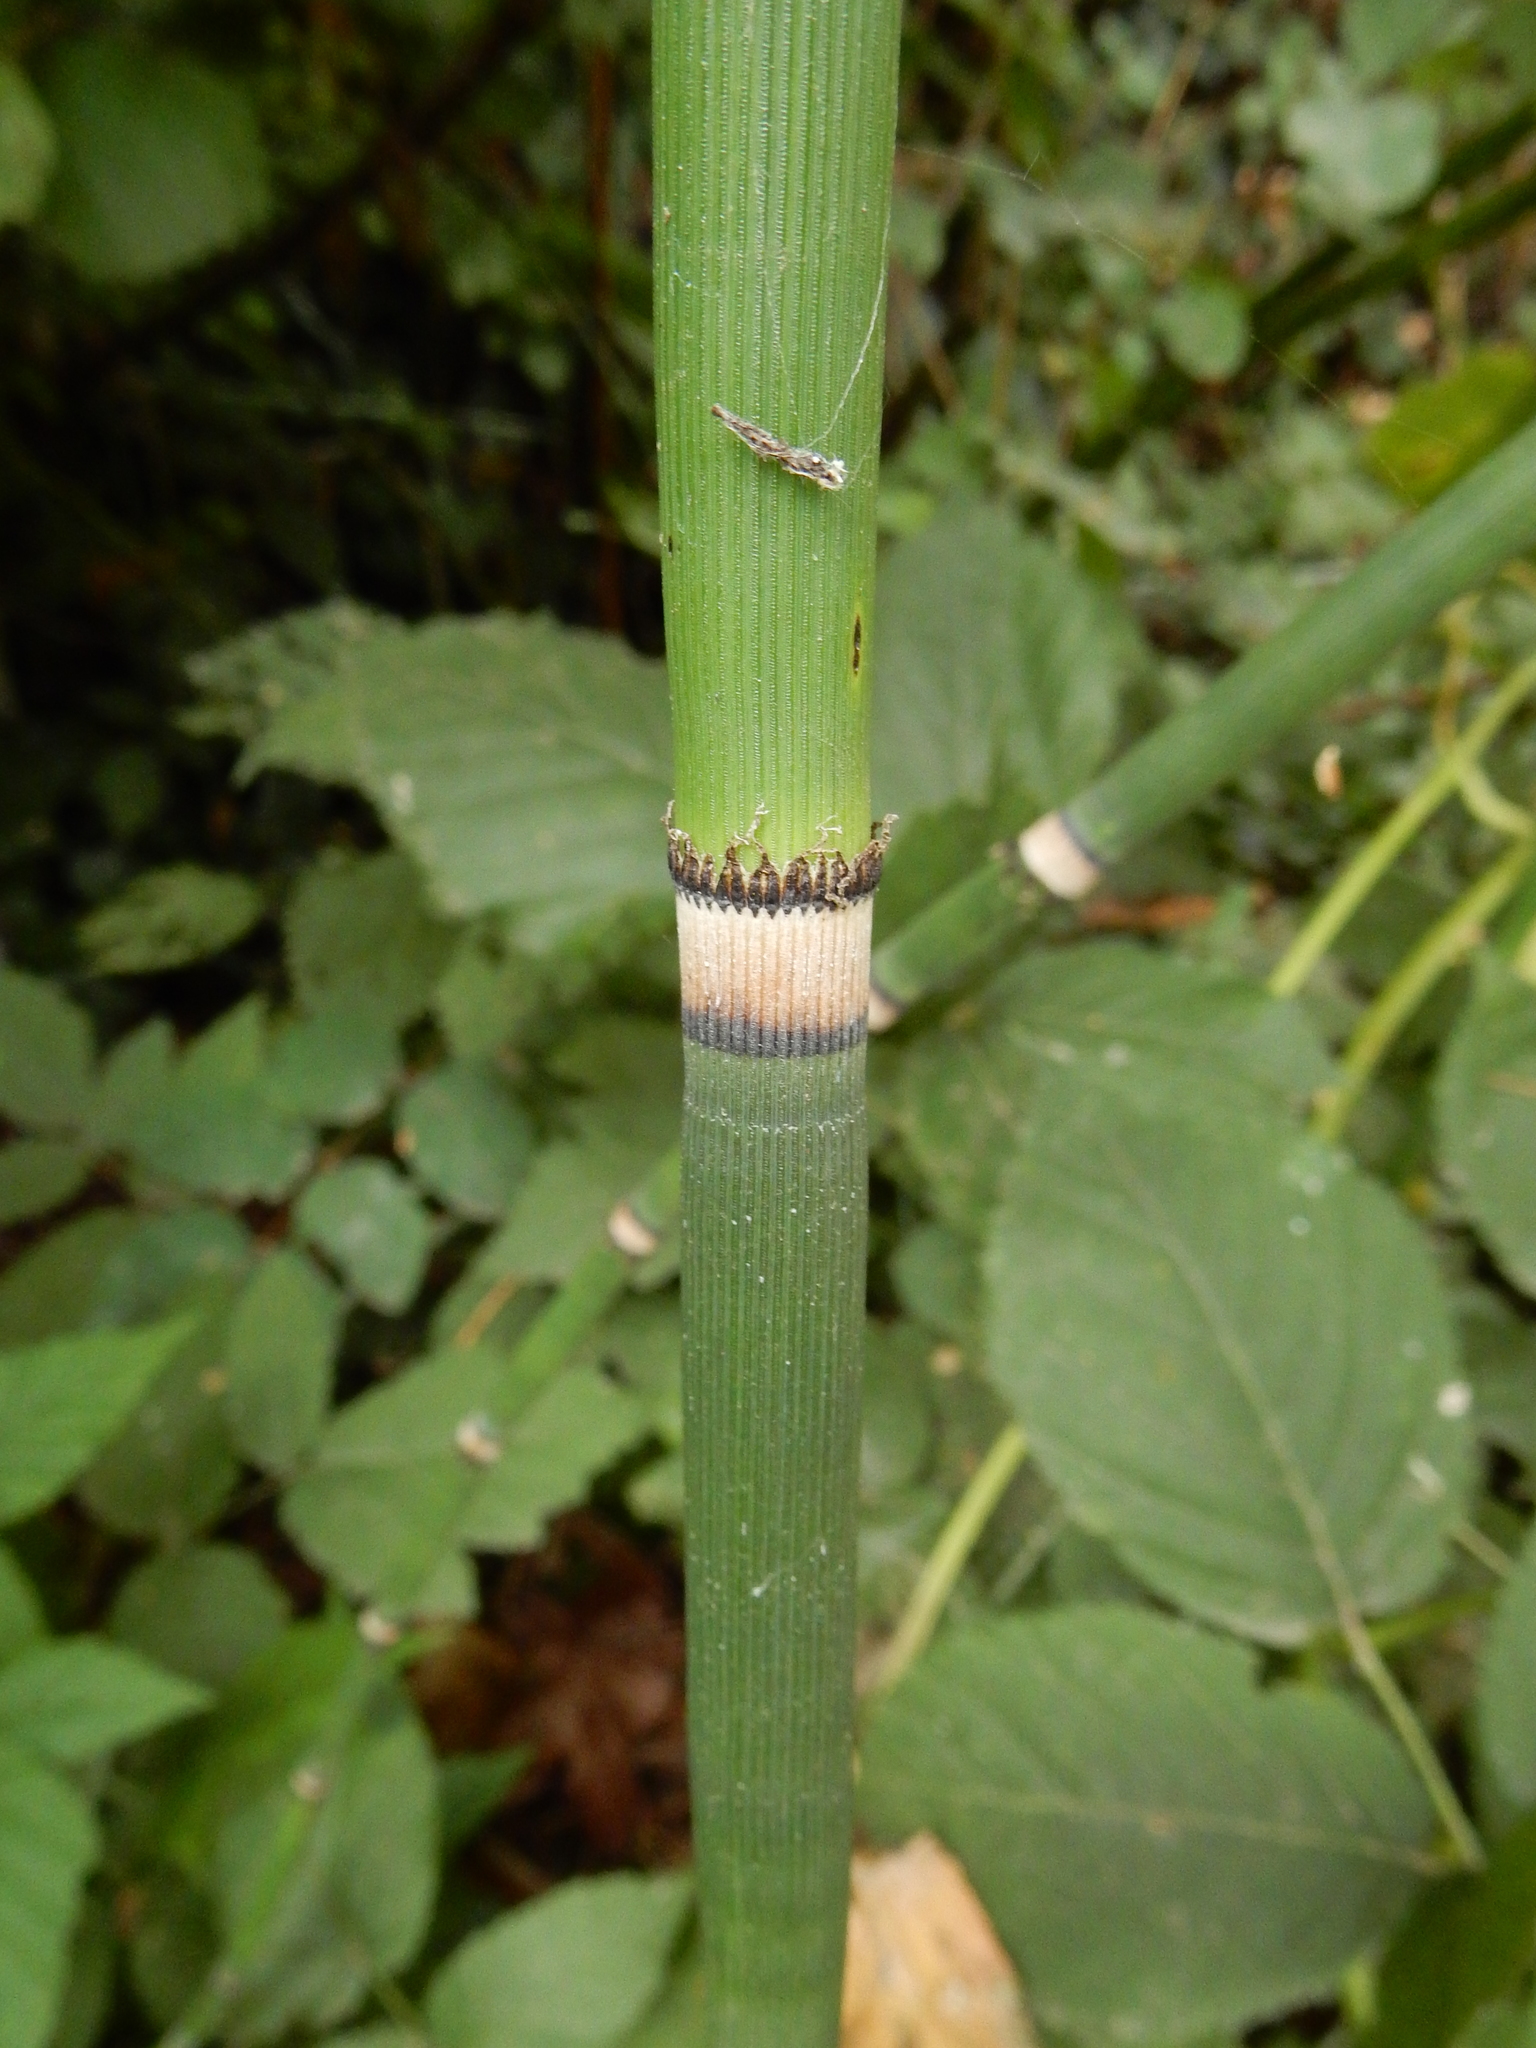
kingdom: Plantae
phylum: Tracheophyta
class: Polypodiopsida
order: Equisetales
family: Equisetaceae
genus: Equisetum
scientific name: Equisetum praealtum
